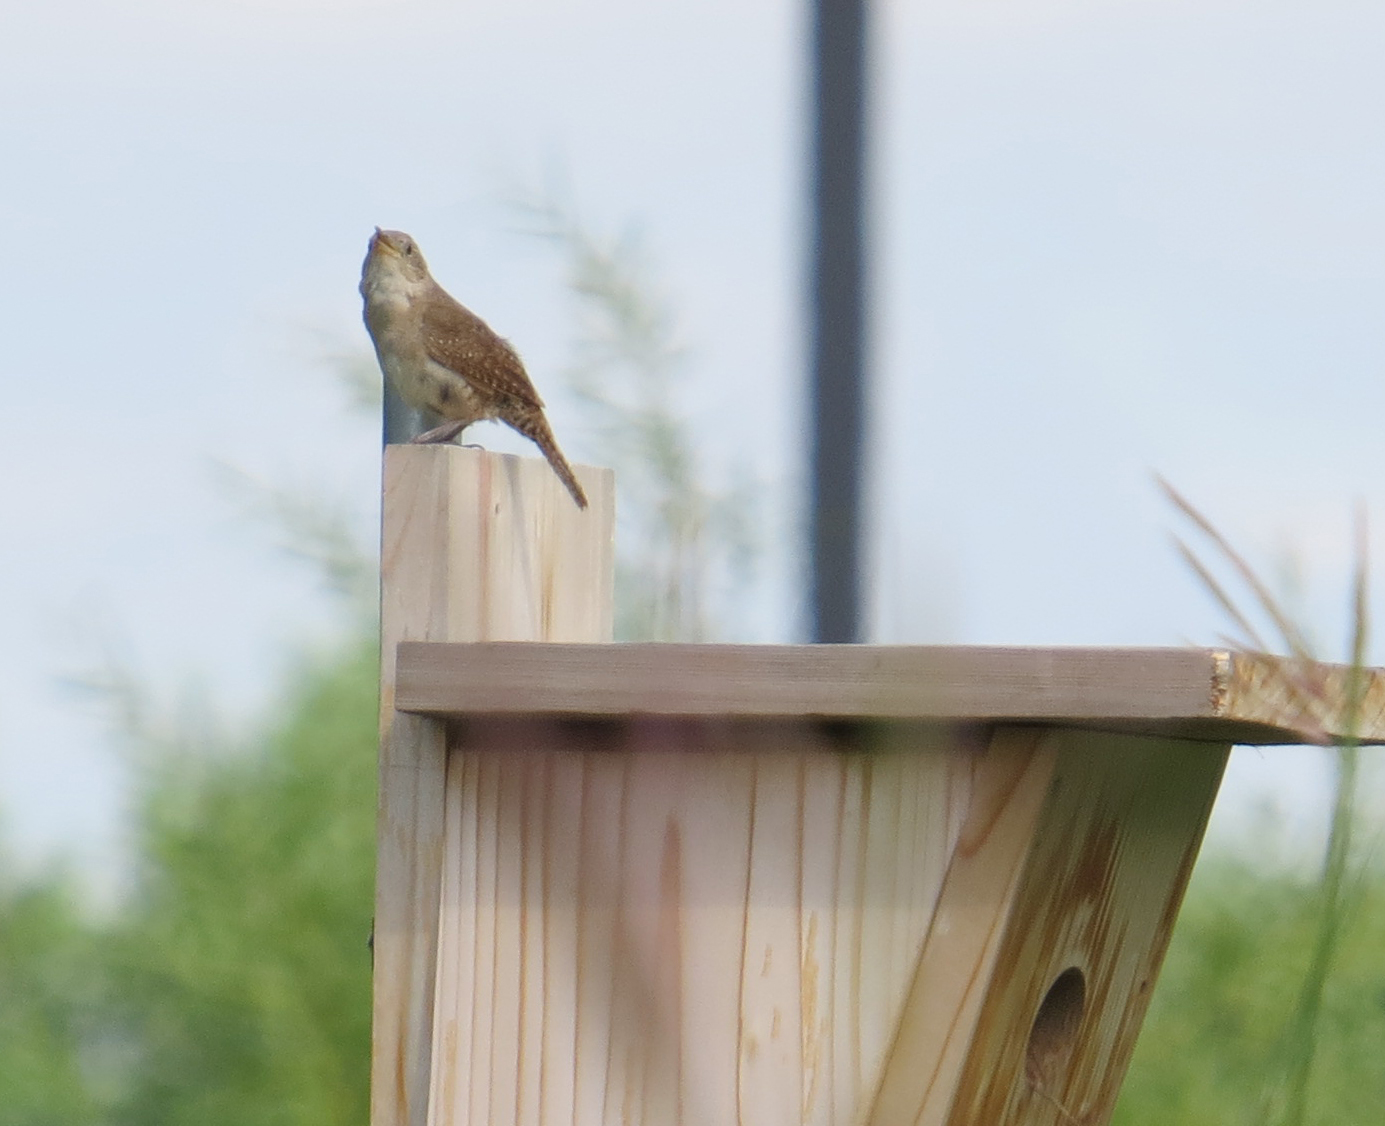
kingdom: Animalia
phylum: Chordata
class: Aves
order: Passeriformes
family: Troglodytidae
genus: Troglodytes
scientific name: Troglodytes aedon
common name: House wren
